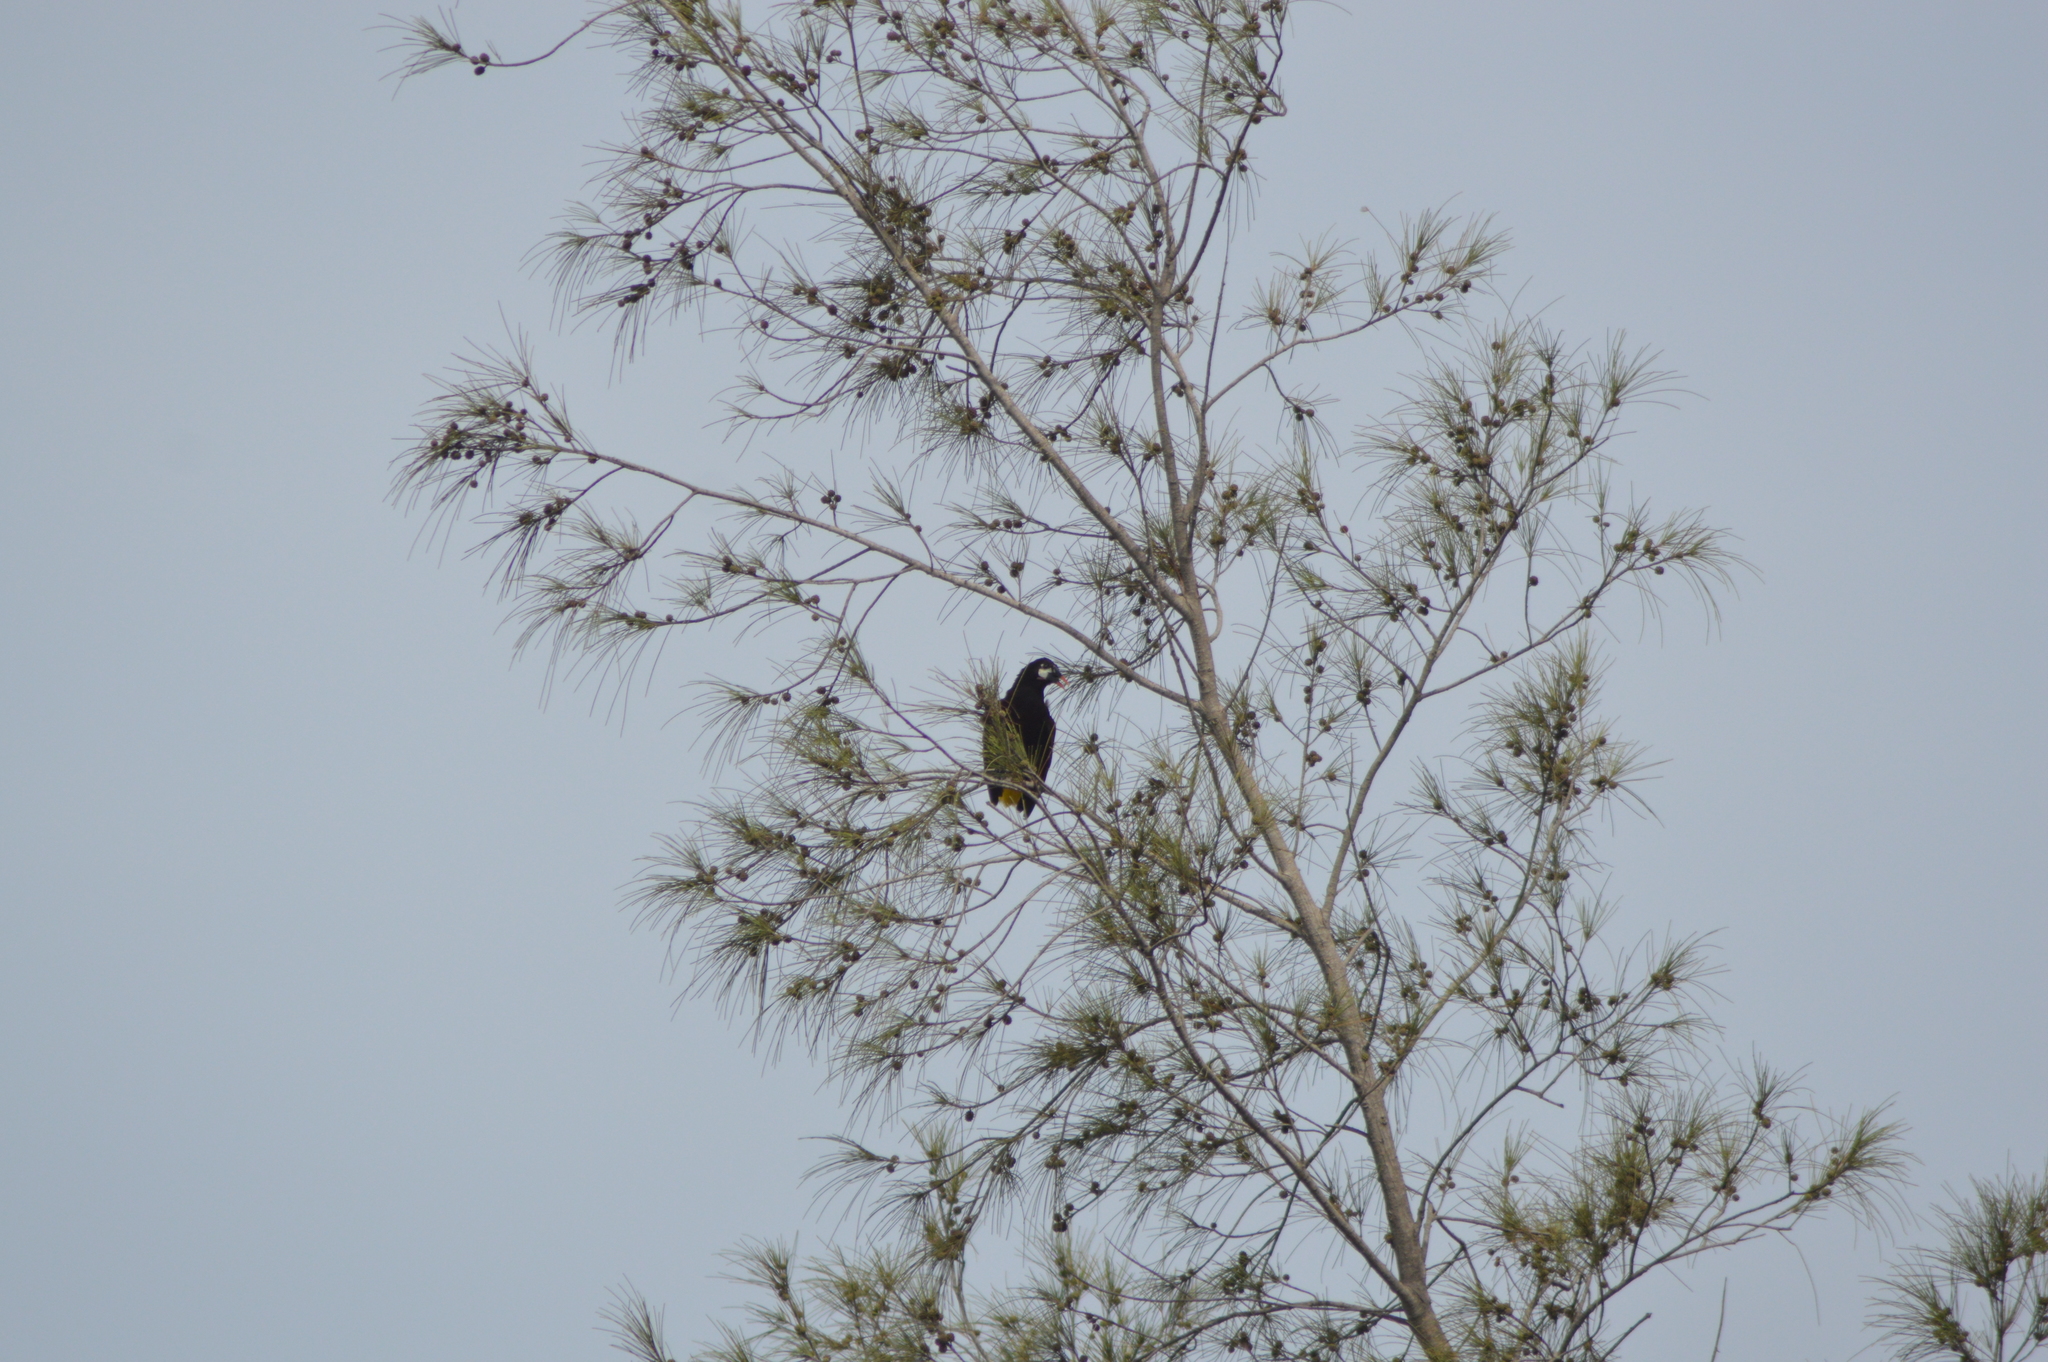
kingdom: Animalia
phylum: Chordata
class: Aves
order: Passeriformes
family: Icteridae
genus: Psarocolius
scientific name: Psarocolius montezuma
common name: Montezuma oropendola
